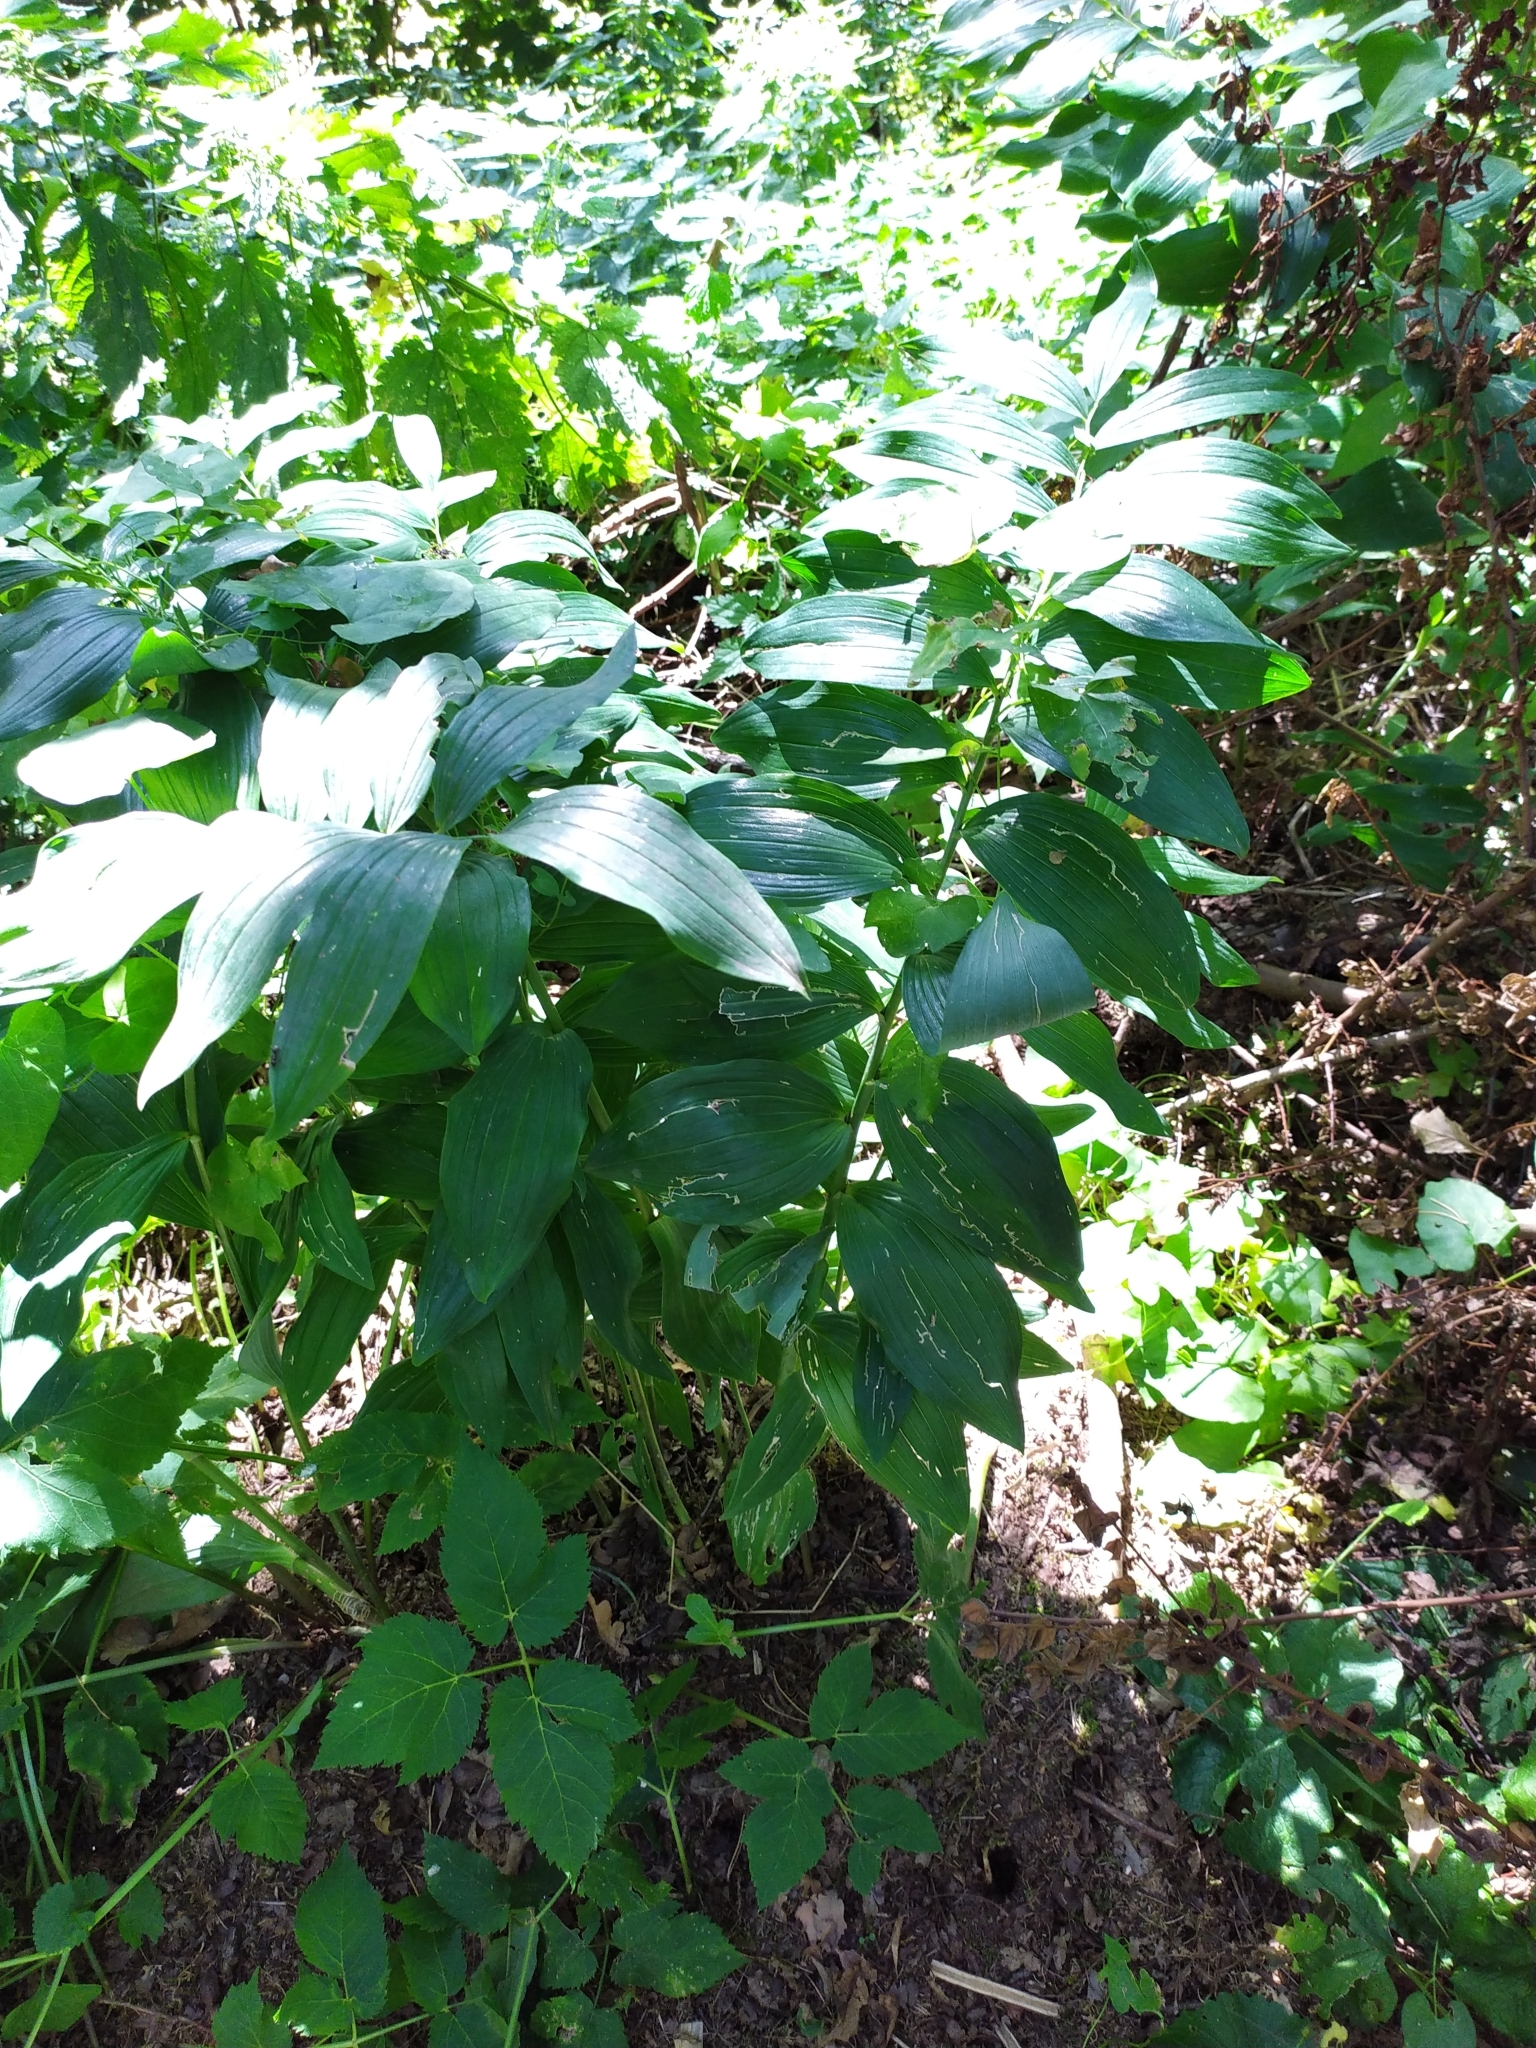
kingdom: Plantae
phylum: Tracheophyta
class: Liliopsida
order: Asparagales
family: Asparagaceae
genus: Polygonatum
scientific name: Polygonatum hybridum
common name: Garden solomon's-seal
